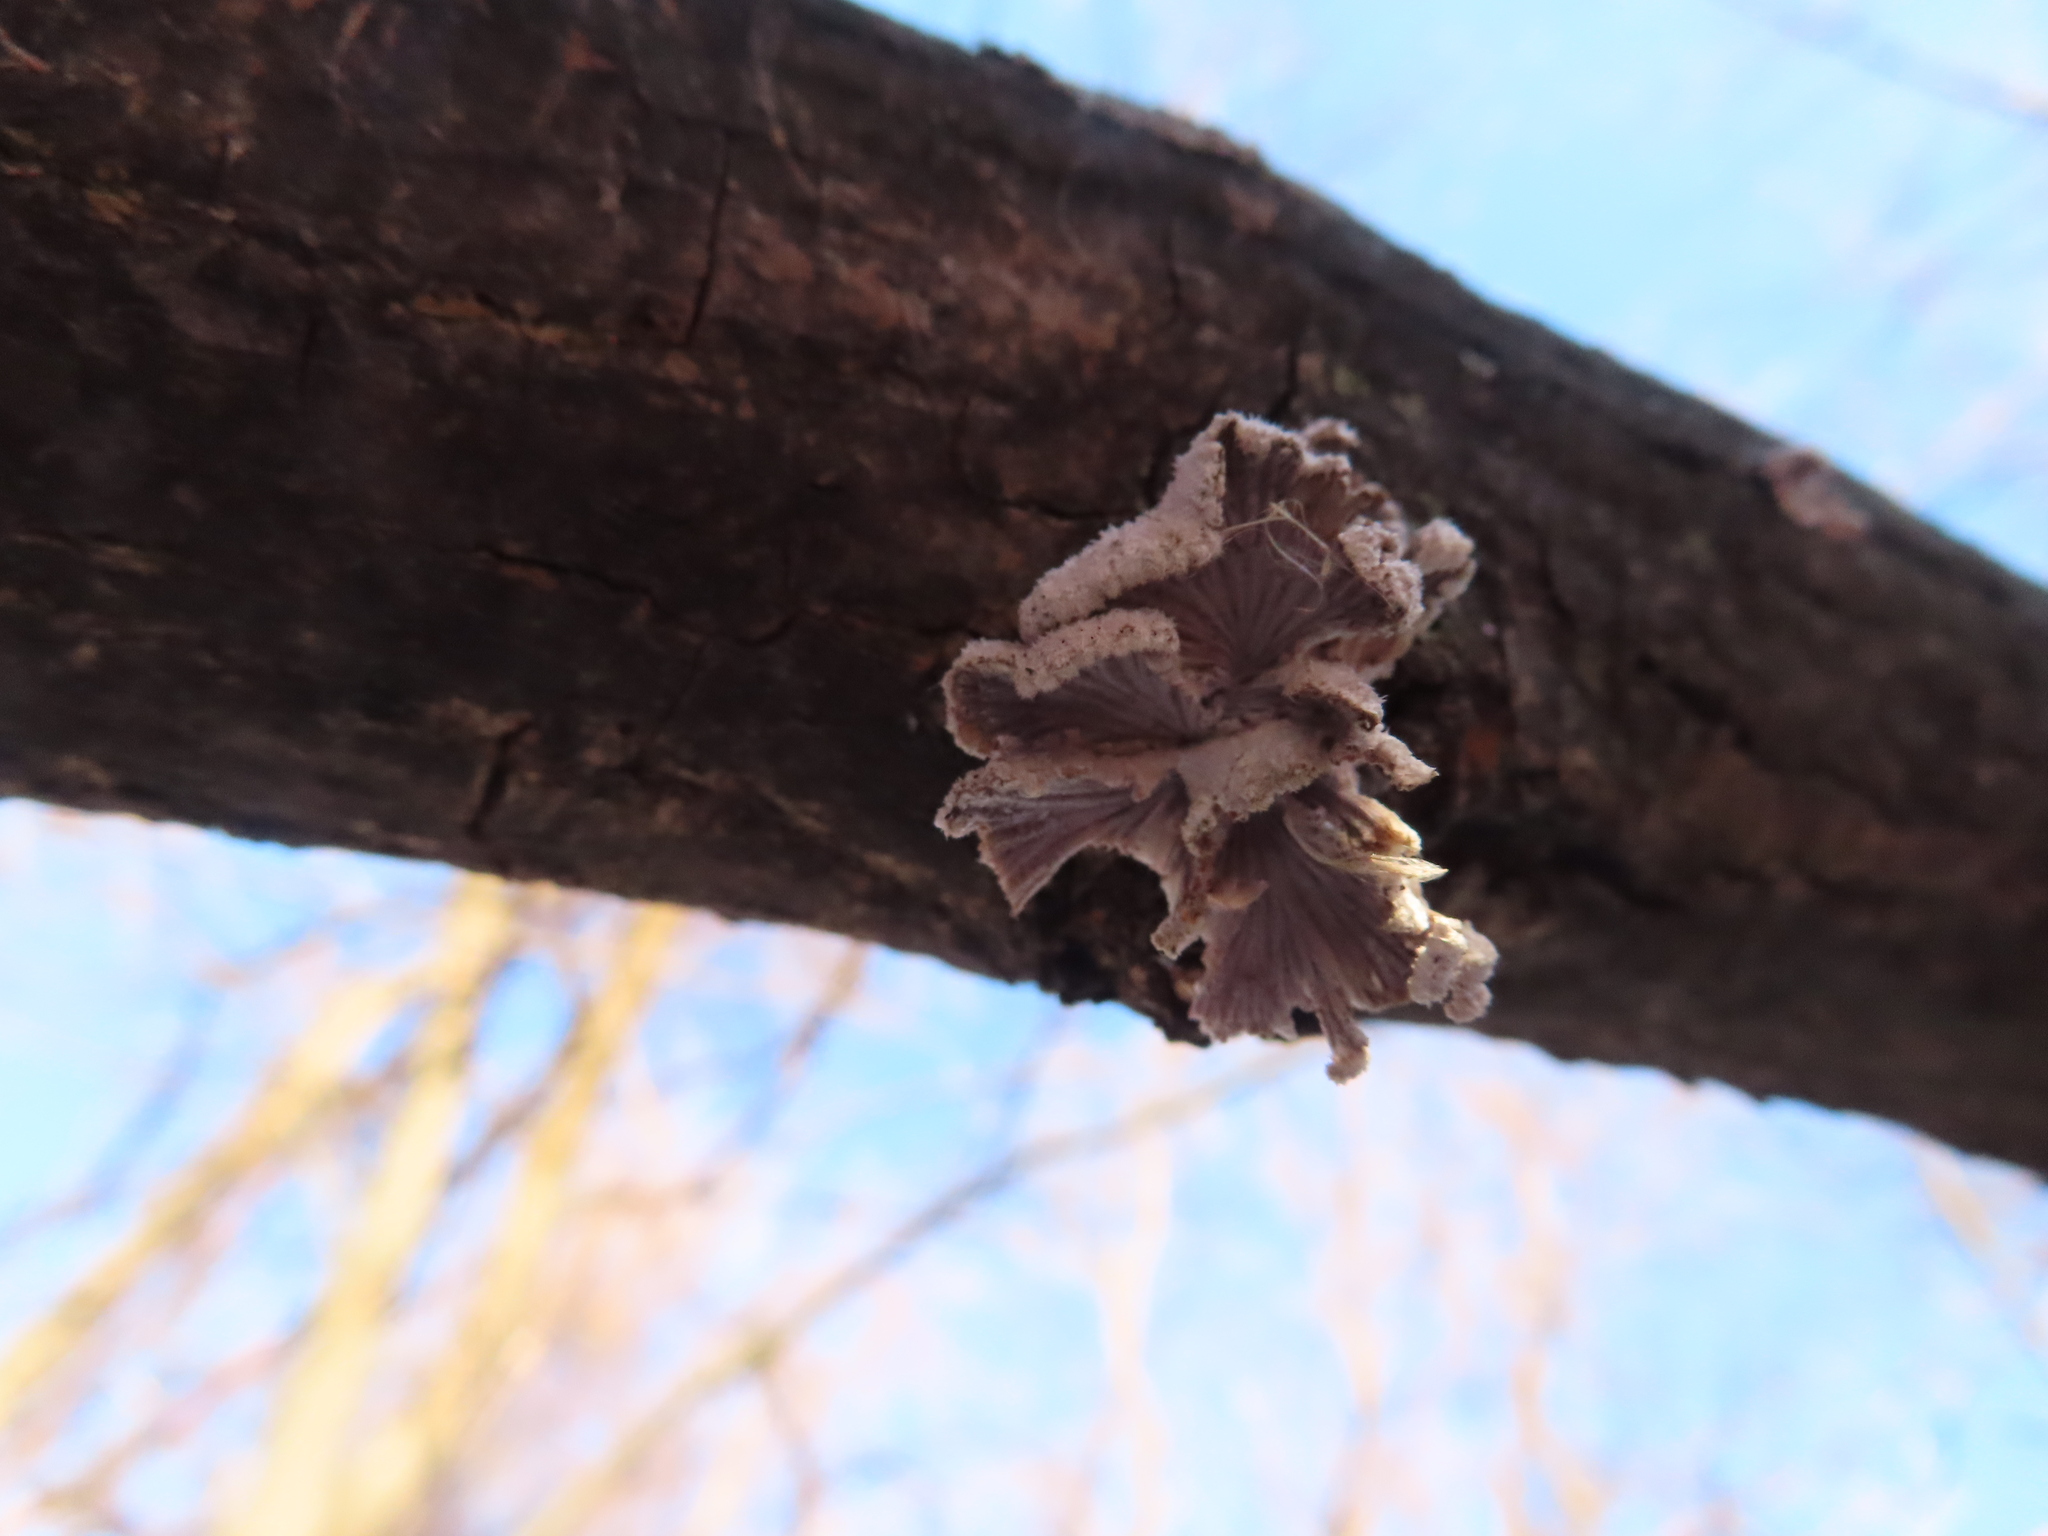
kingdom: Fungi
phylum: Basidiomycota
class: Agaricomycetes
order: Agaricales
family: Schizophyllaceae
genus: Schizophyllum
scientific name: Schizophyllum commune
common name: Common porecrust
